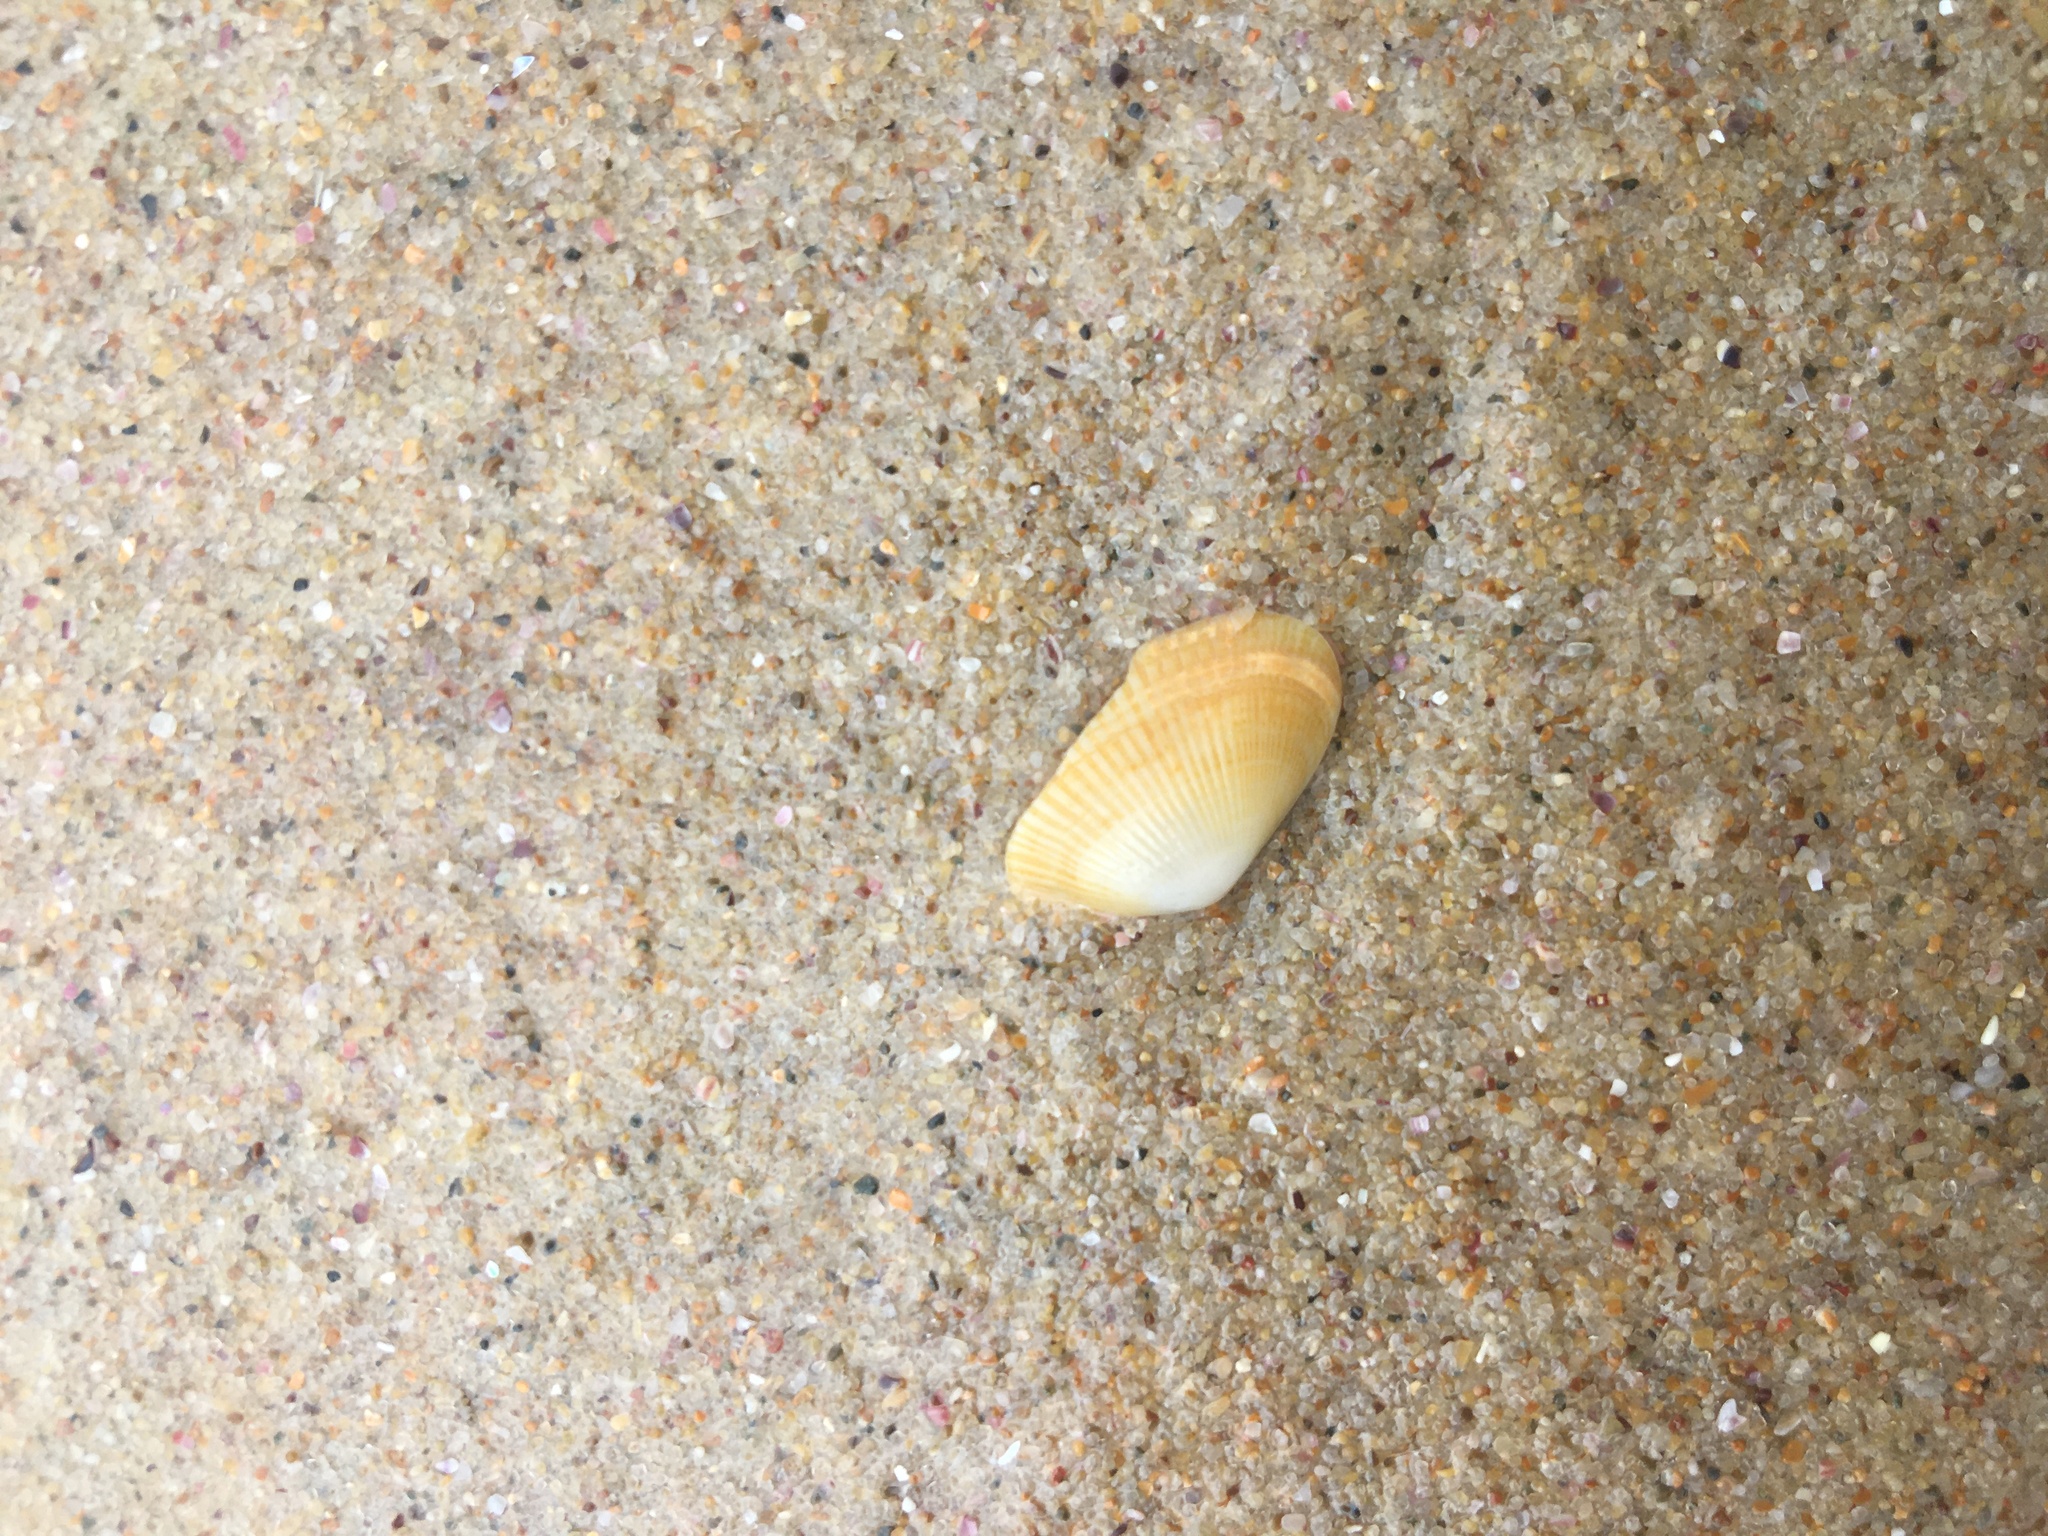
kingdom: Animalia
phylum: Mollusca
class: Bivalvia
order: Venerida
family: Hemidonacidae
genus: Hemidonax
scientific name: Hemidonax dactylus
